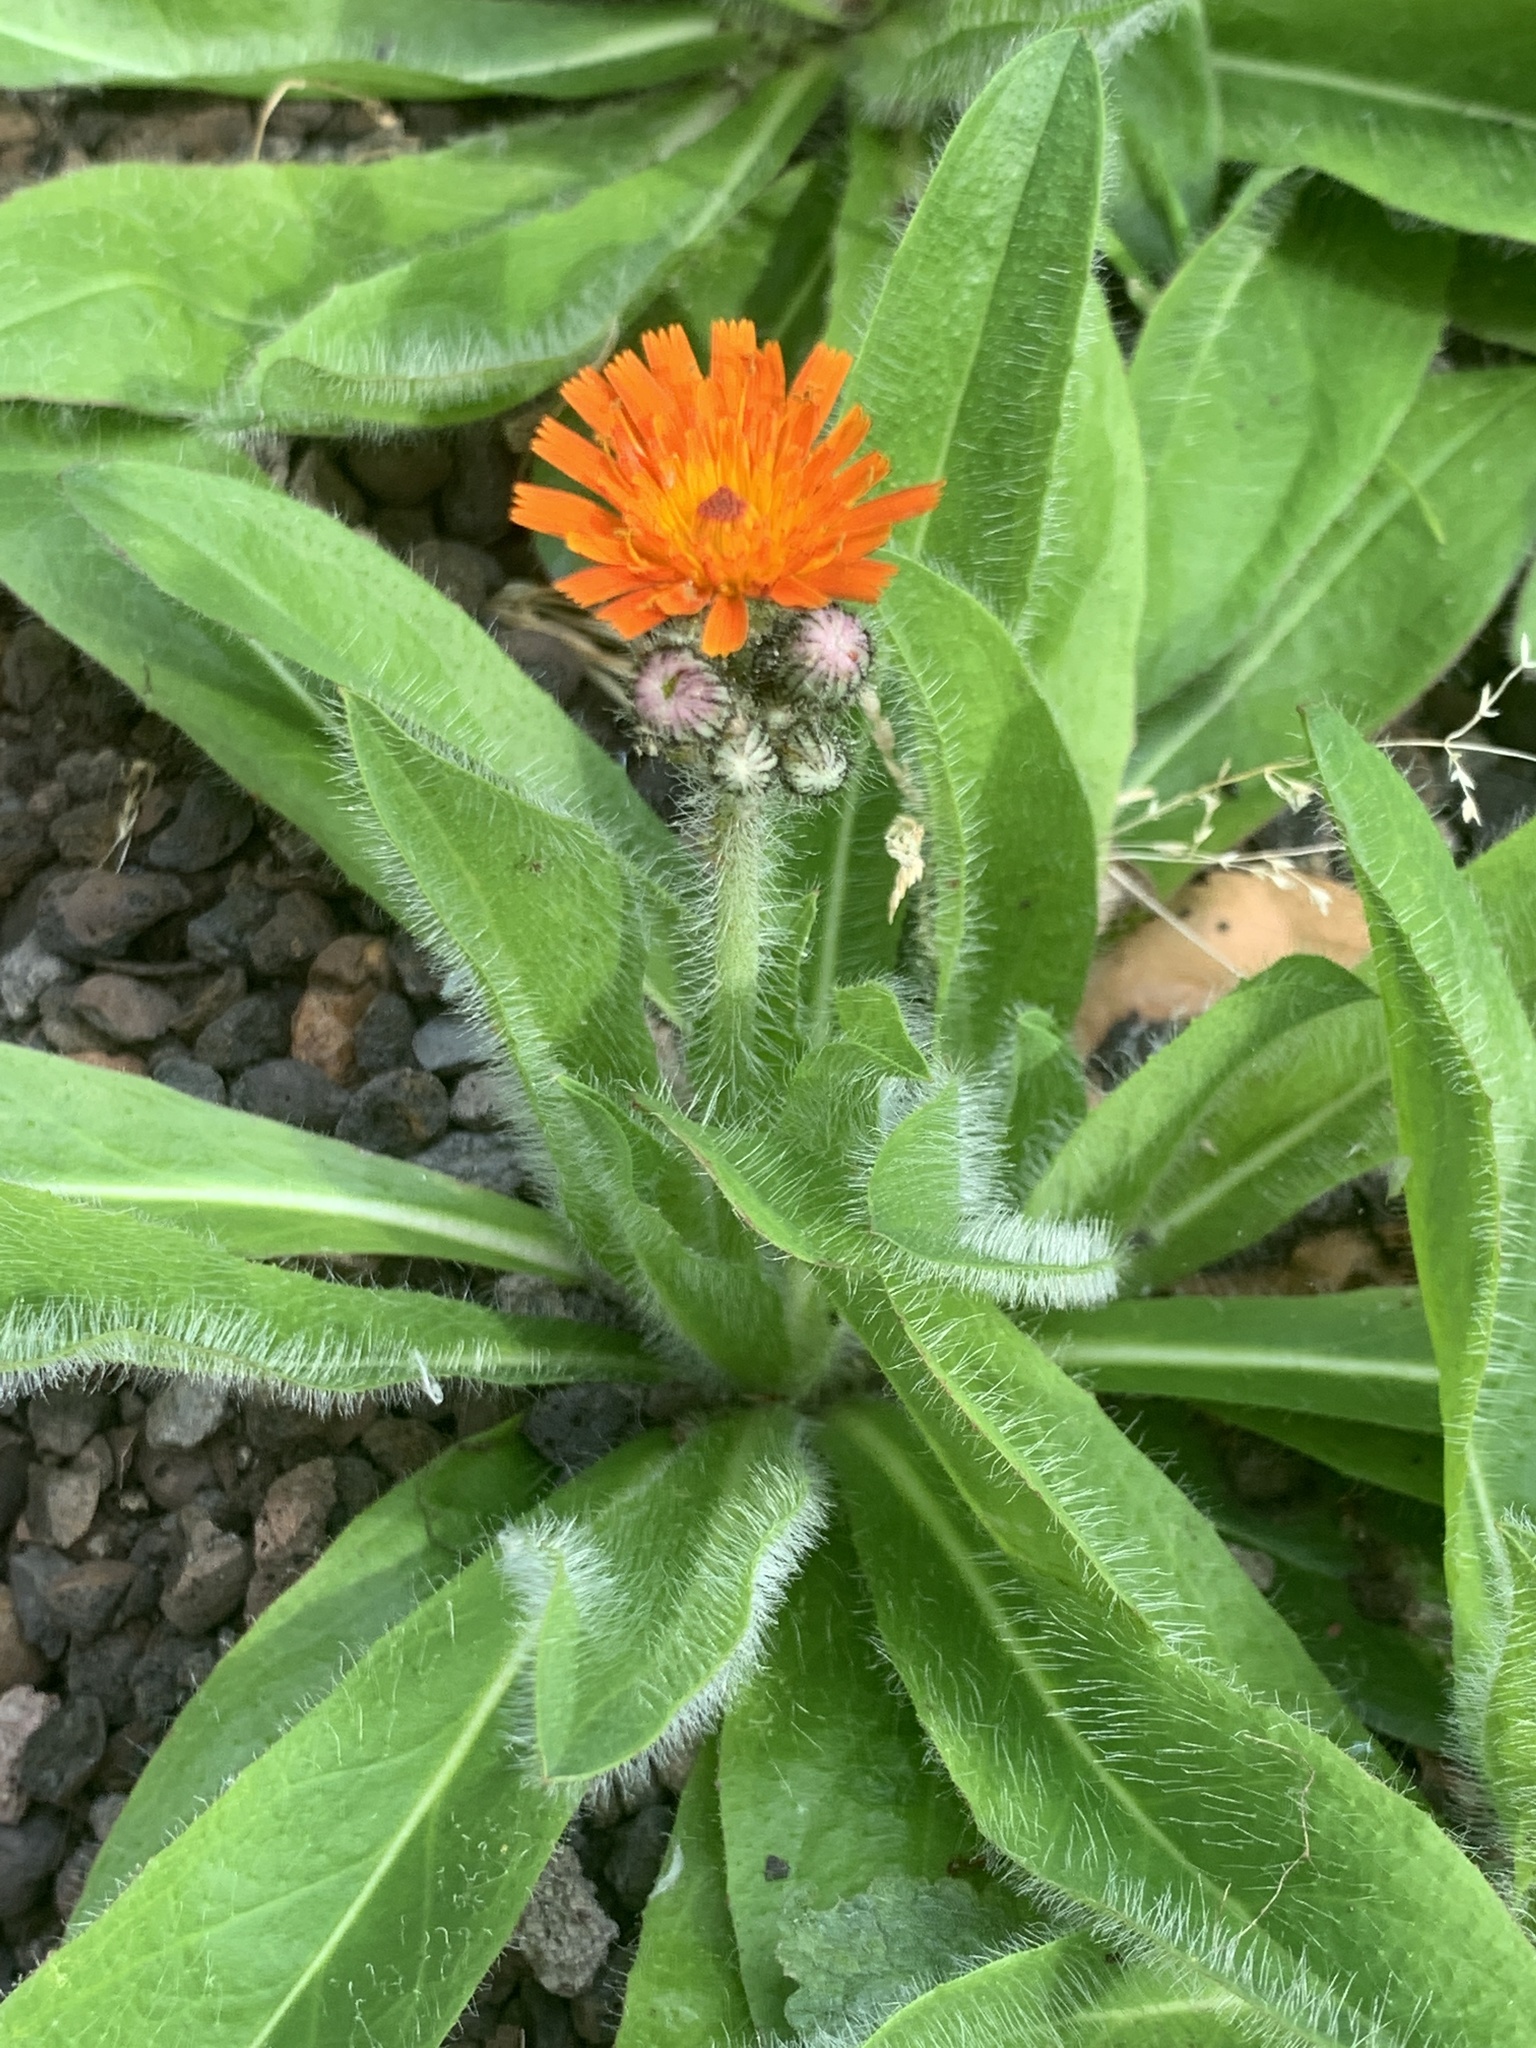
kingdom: Plantae
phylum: Tracheophyta
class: Magnoliopsida
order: Asterales
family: Asteraceae
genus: Pilosella
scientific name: Pilosella aurantiaca
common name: Fox-and-cubs
